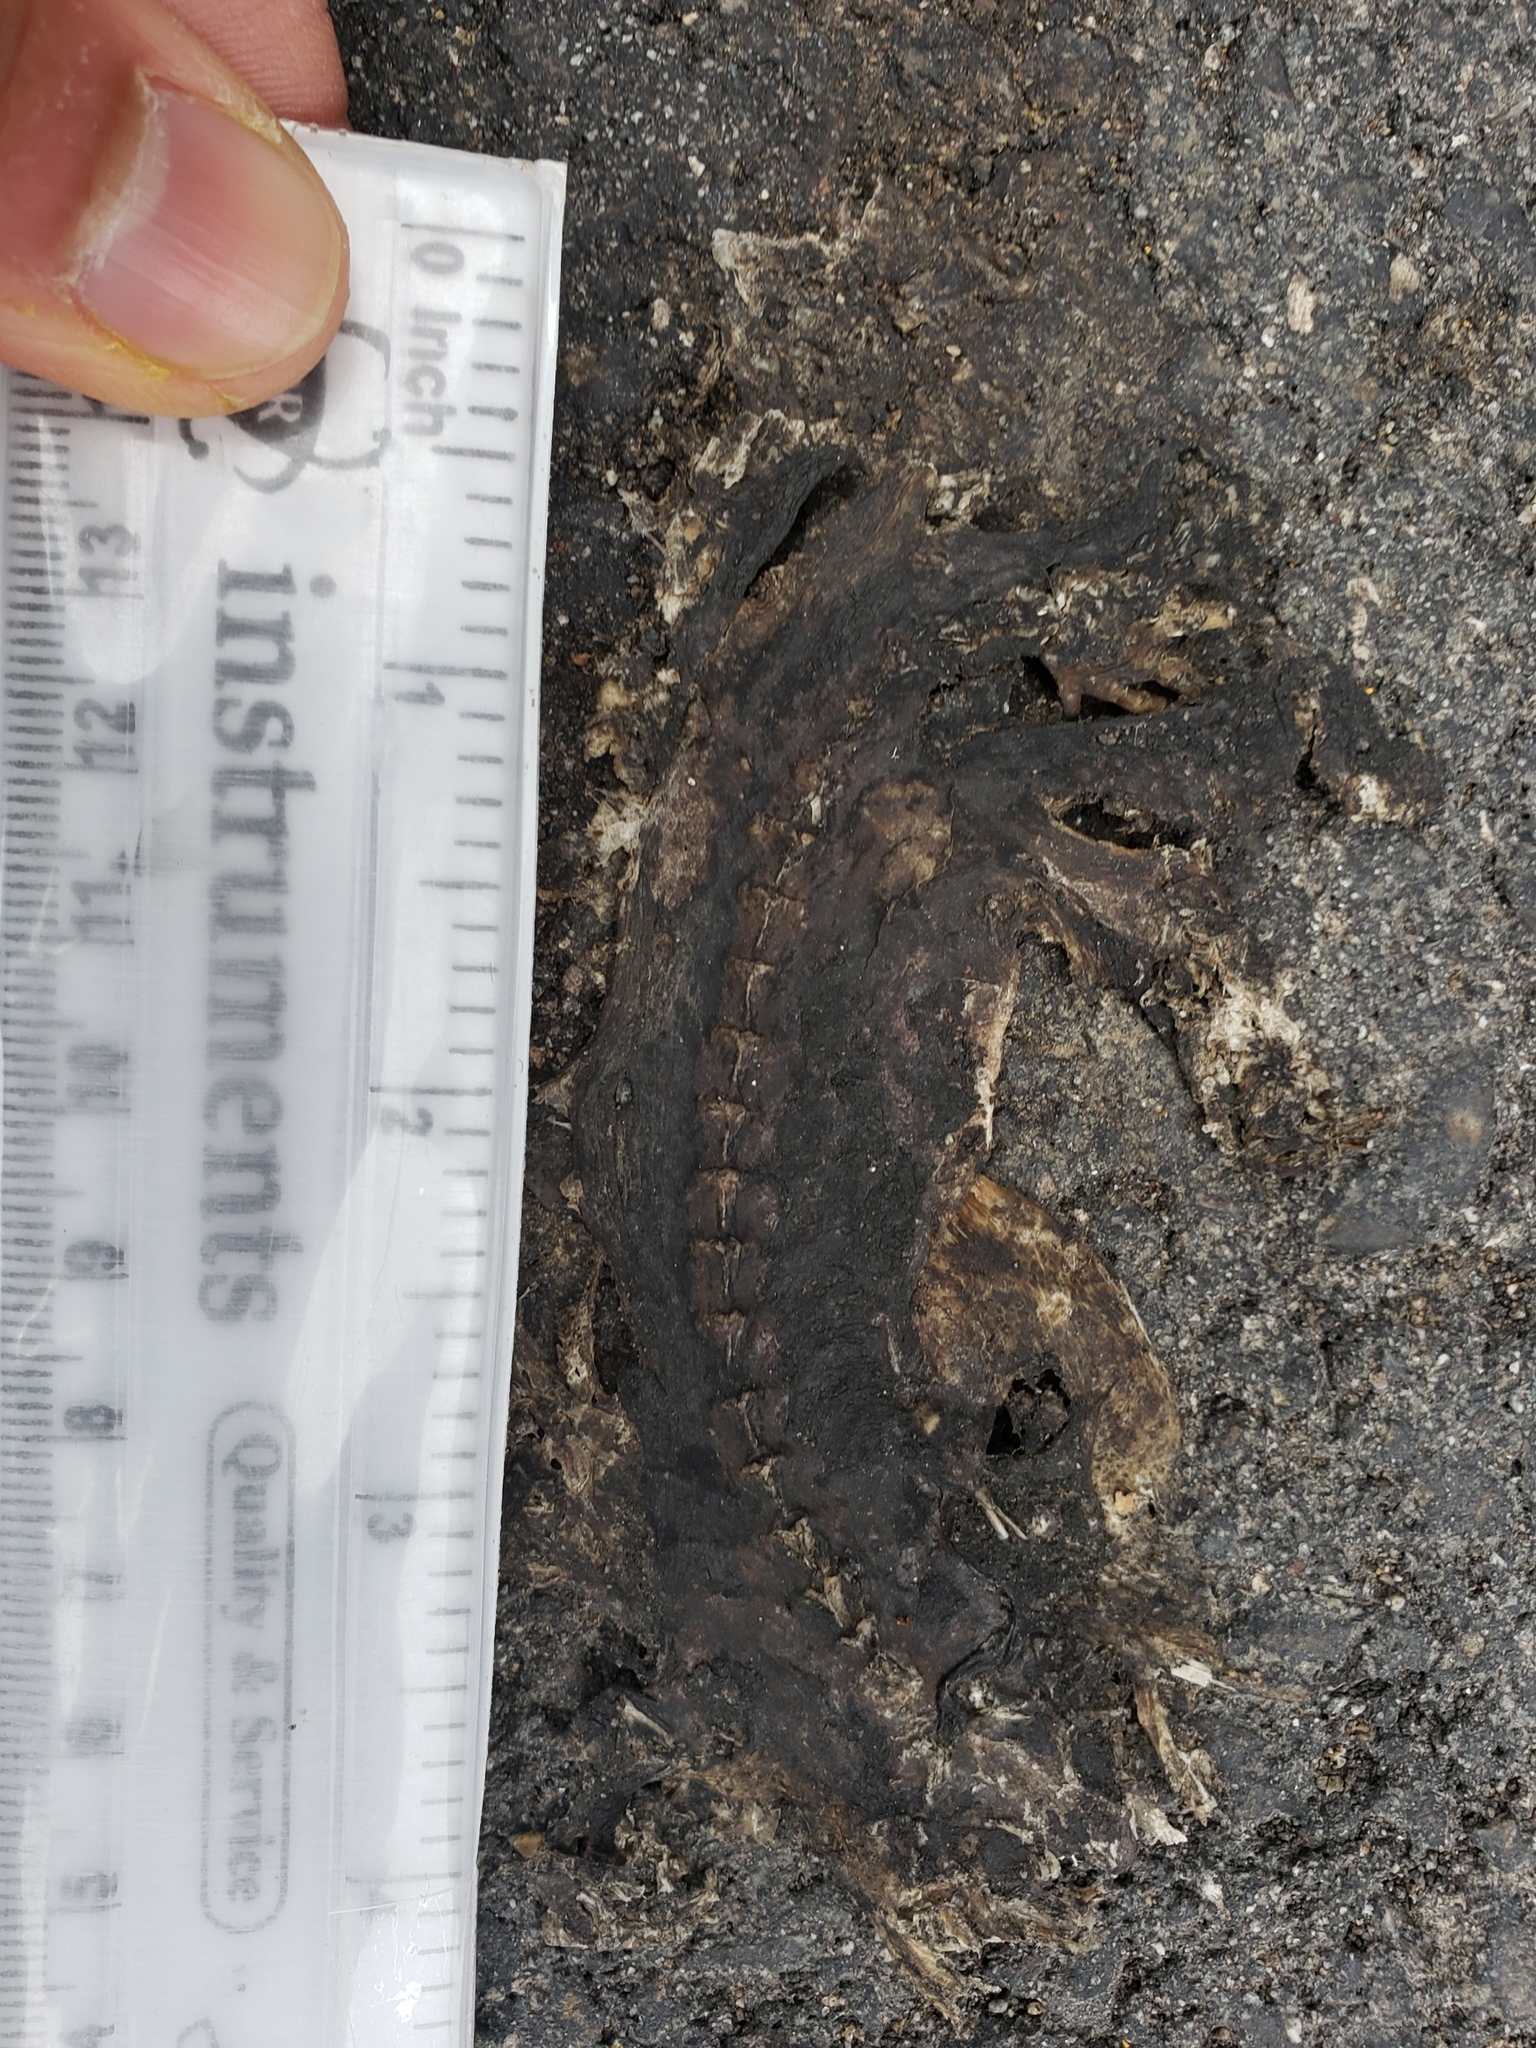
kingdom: Animalia
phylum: Chordata
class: Amphibia
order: Caudata
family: Salamandridae
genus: Taricha
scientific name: Taricha
